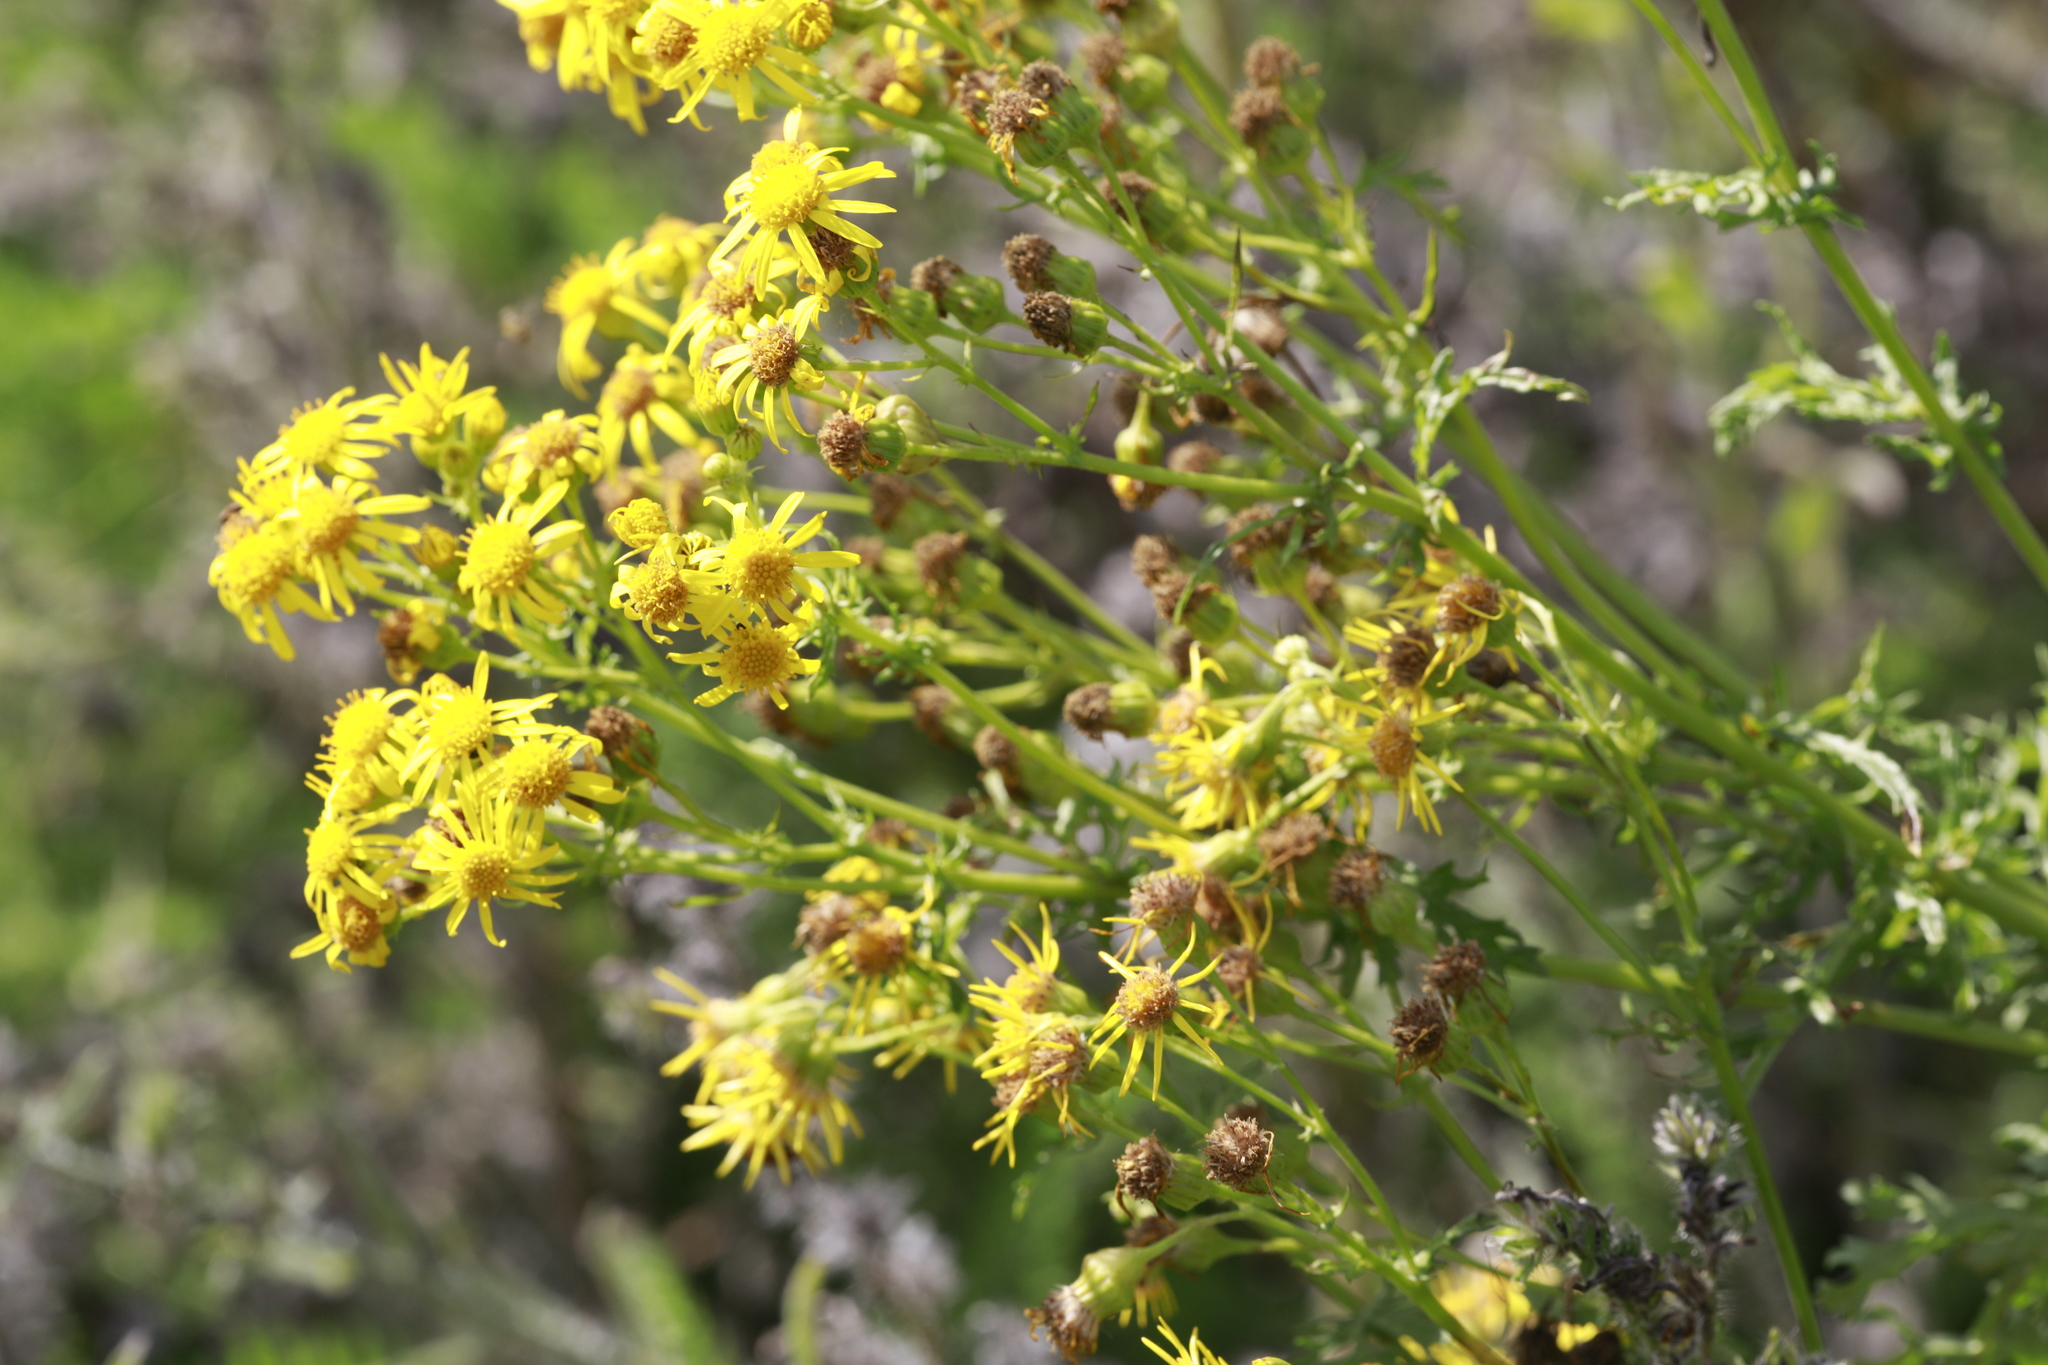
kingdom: Plantae
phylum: Tracheophyta
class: Magnoliopsida
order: Asterales
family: Asteraceae
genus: Jacobaea
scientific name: Jacobaea vulgaris
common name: Stinking willie
